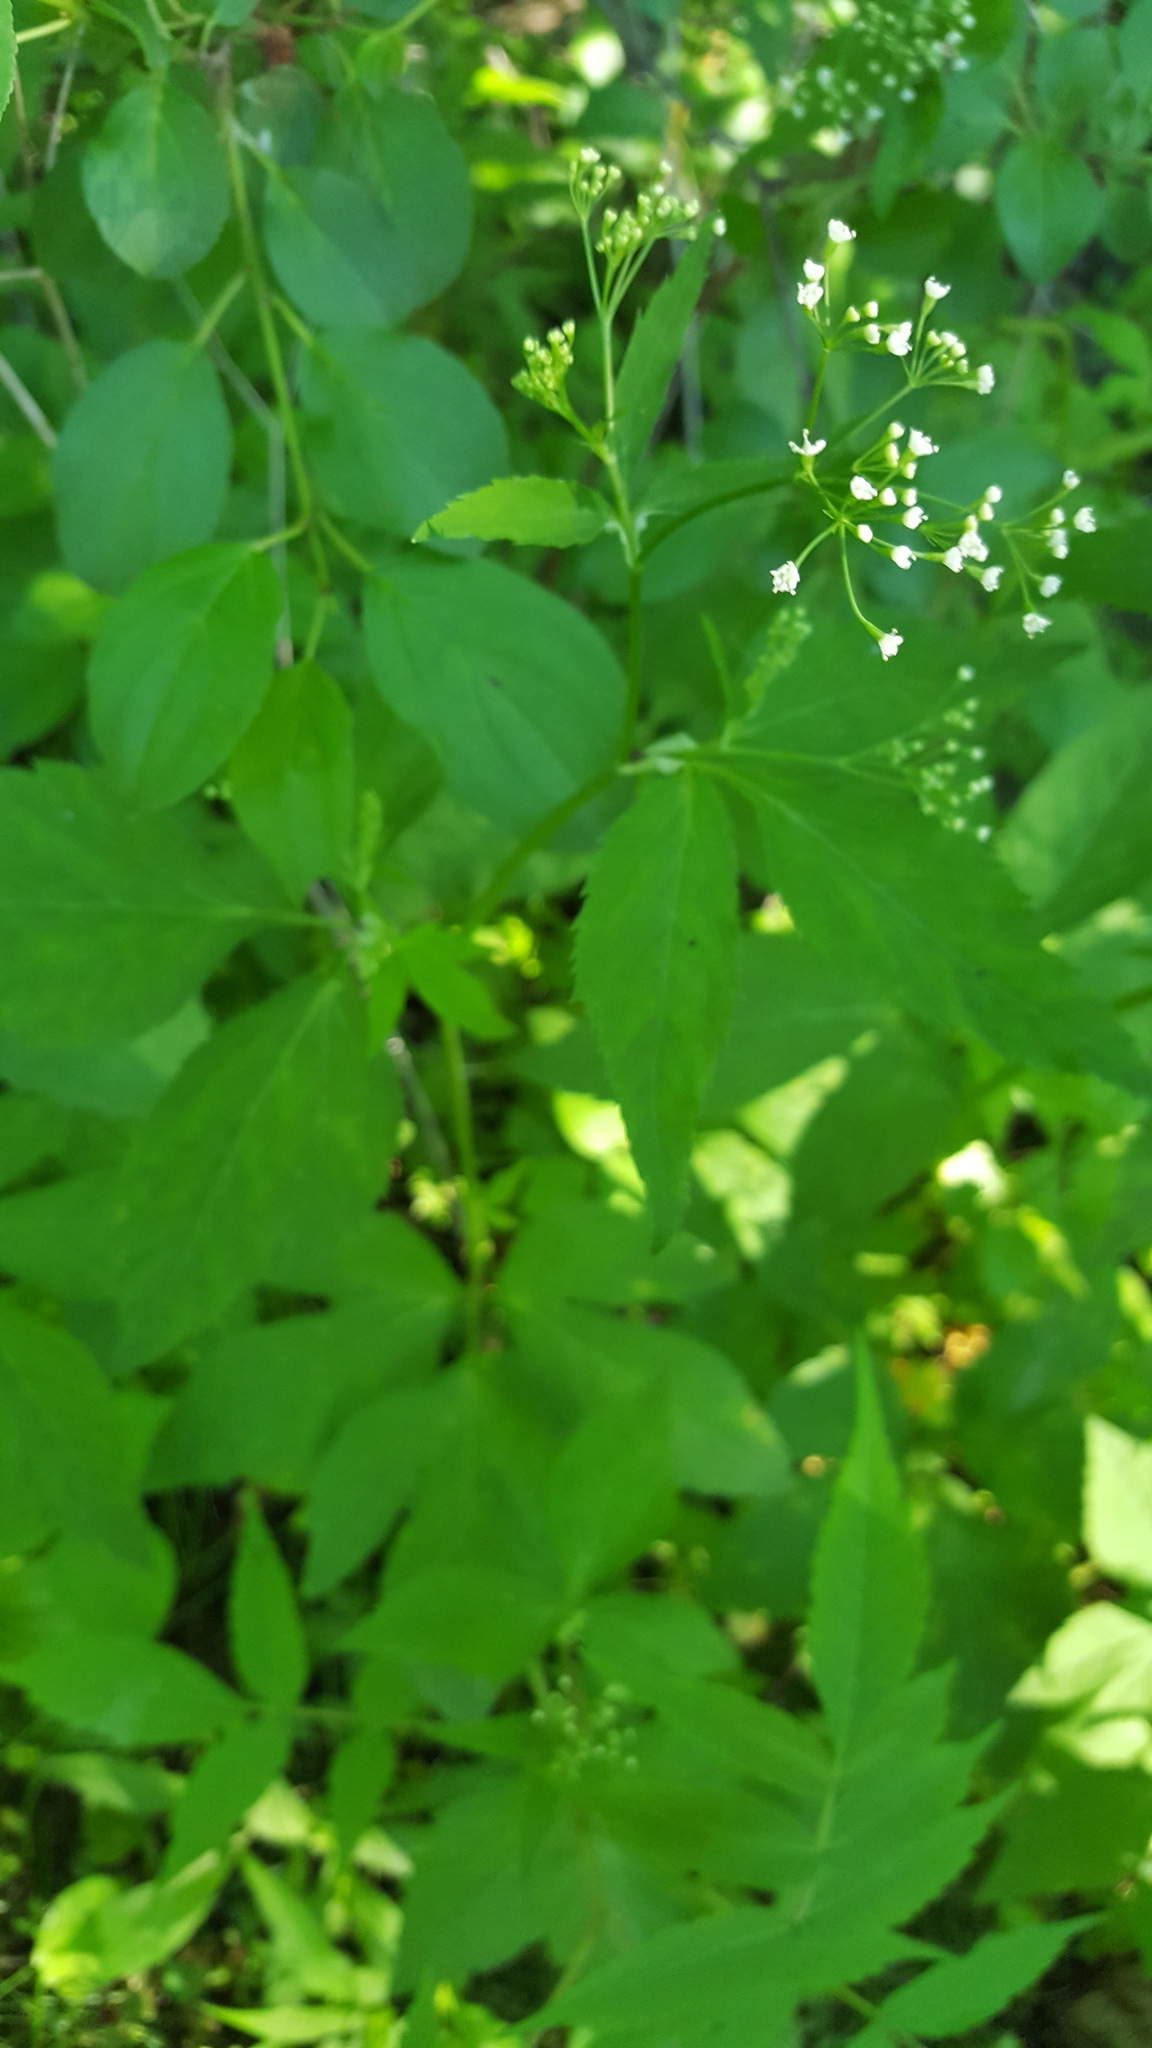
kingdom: Plantae
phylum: Tracheophyta
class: Magnoliopsida
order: Apiales
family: Apiaceae
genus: Cryptotaenia
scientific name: Cryptotaenia canadensis
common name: Honewort
